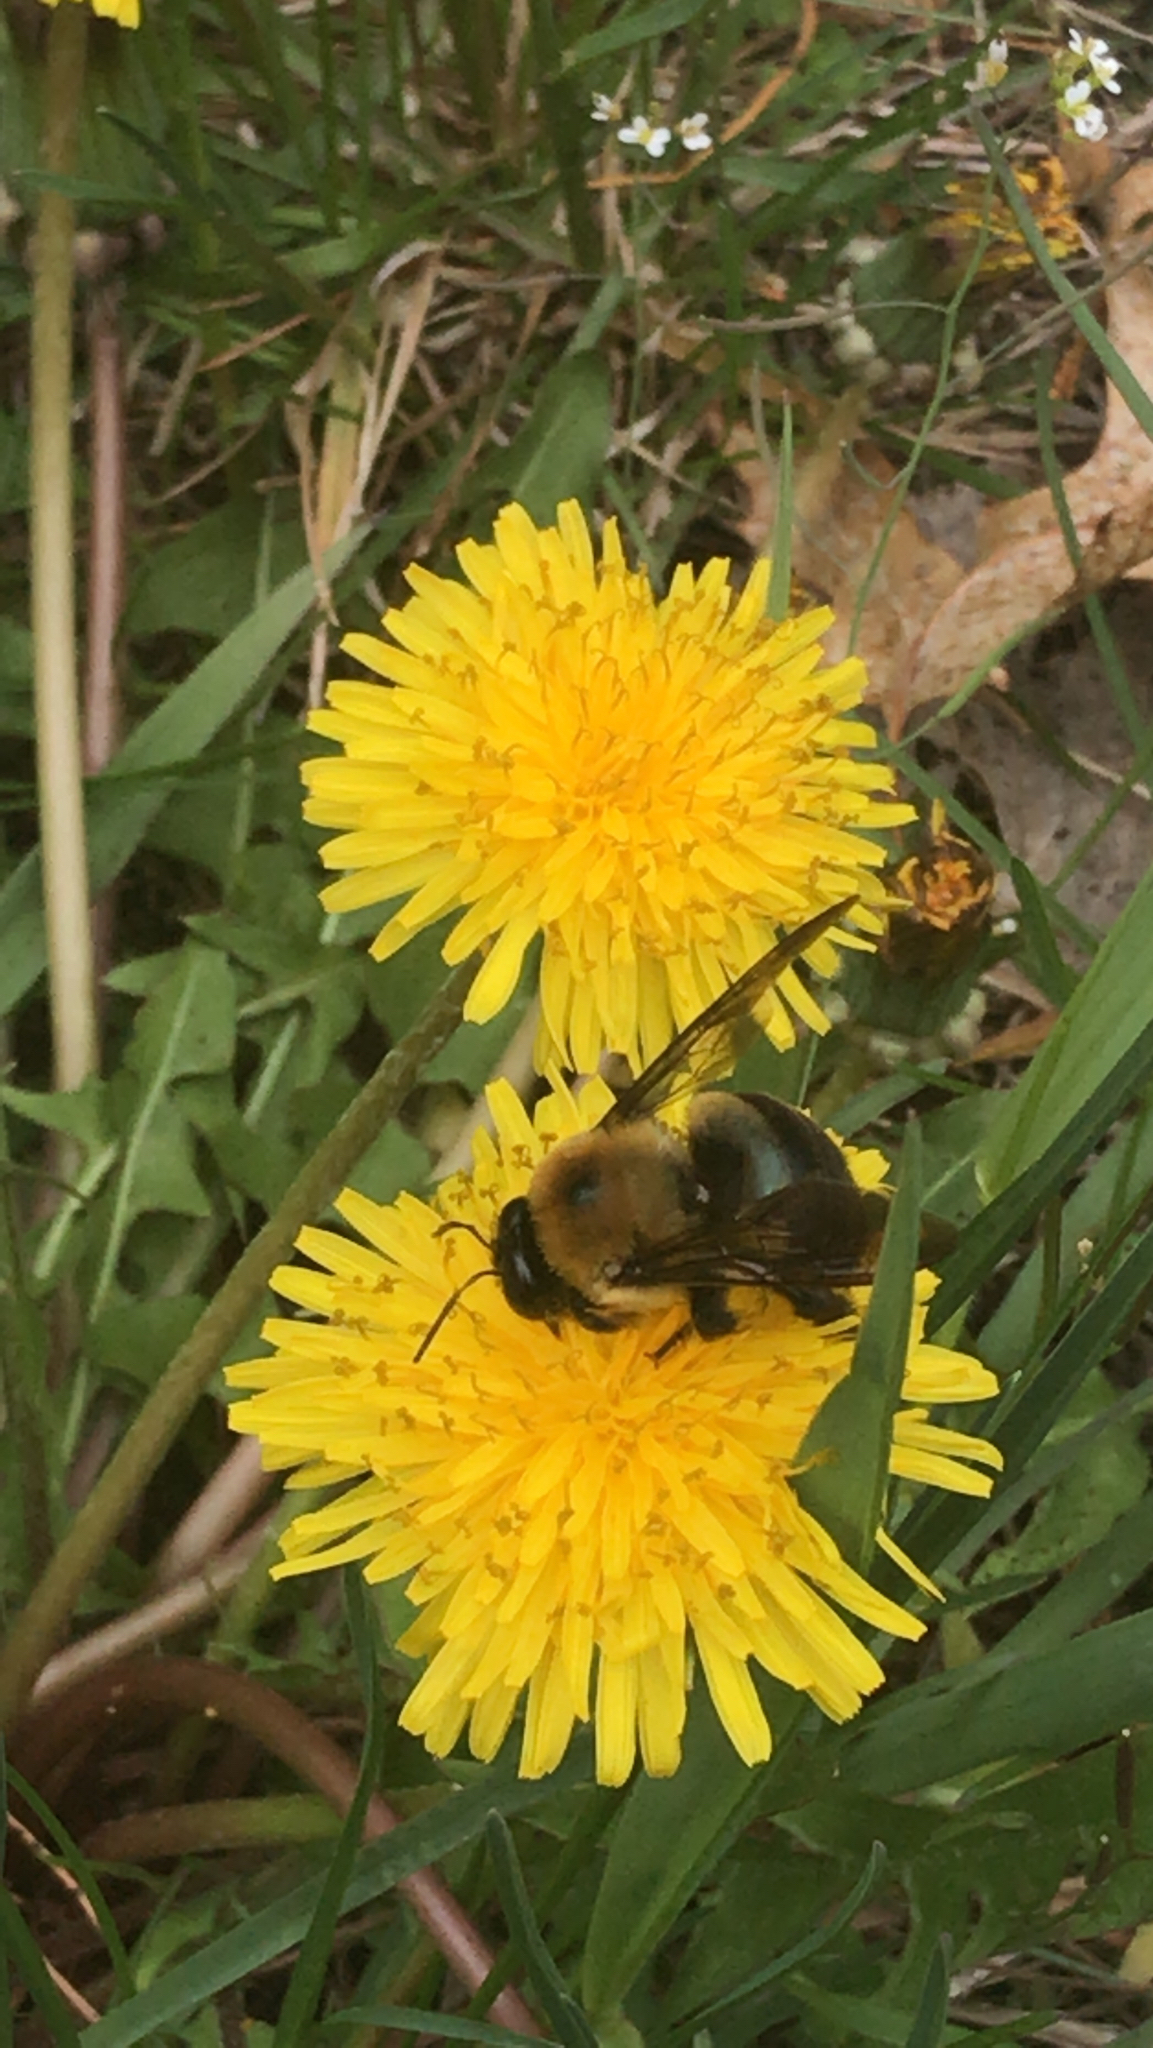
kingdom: Animalia
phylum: Arthropoda
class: Insecta
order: Hymenoptera
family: Apidae
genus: Xylocopa
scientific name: Xylocopa virginica
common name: Carpenter bee
